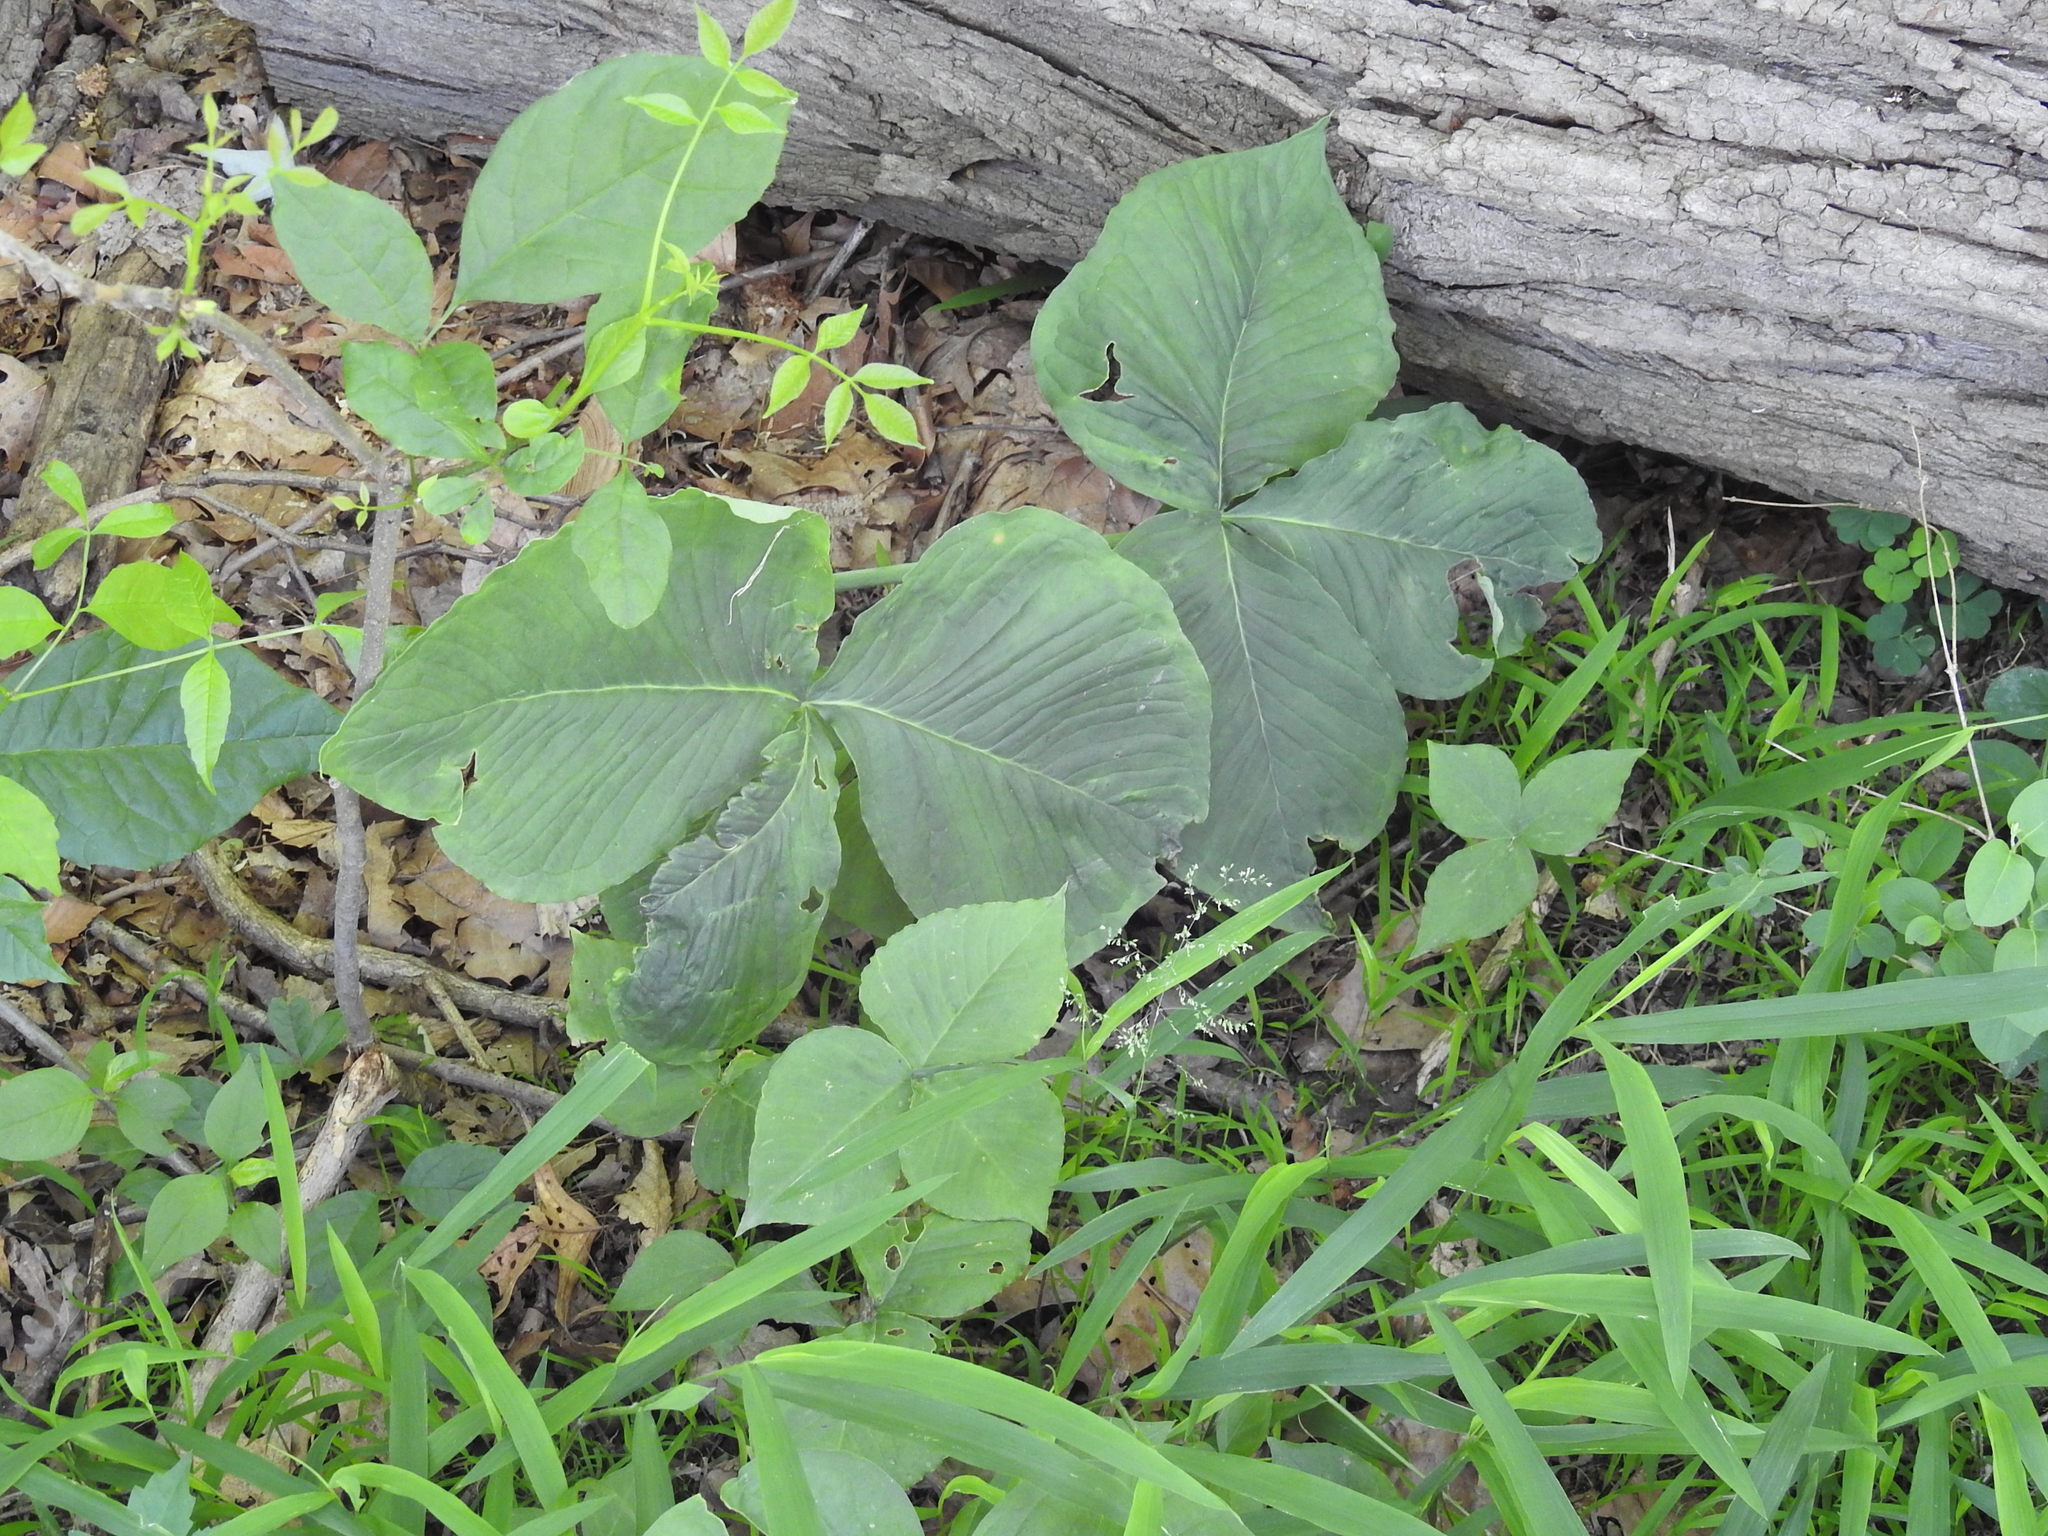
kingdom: Plantae
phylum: Tracheophyta
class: Liliopsida
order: Alismatales
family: Araceae
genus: Arisaema
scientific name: Arisaema triphyllum
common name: Jack-in-the-pulpit
